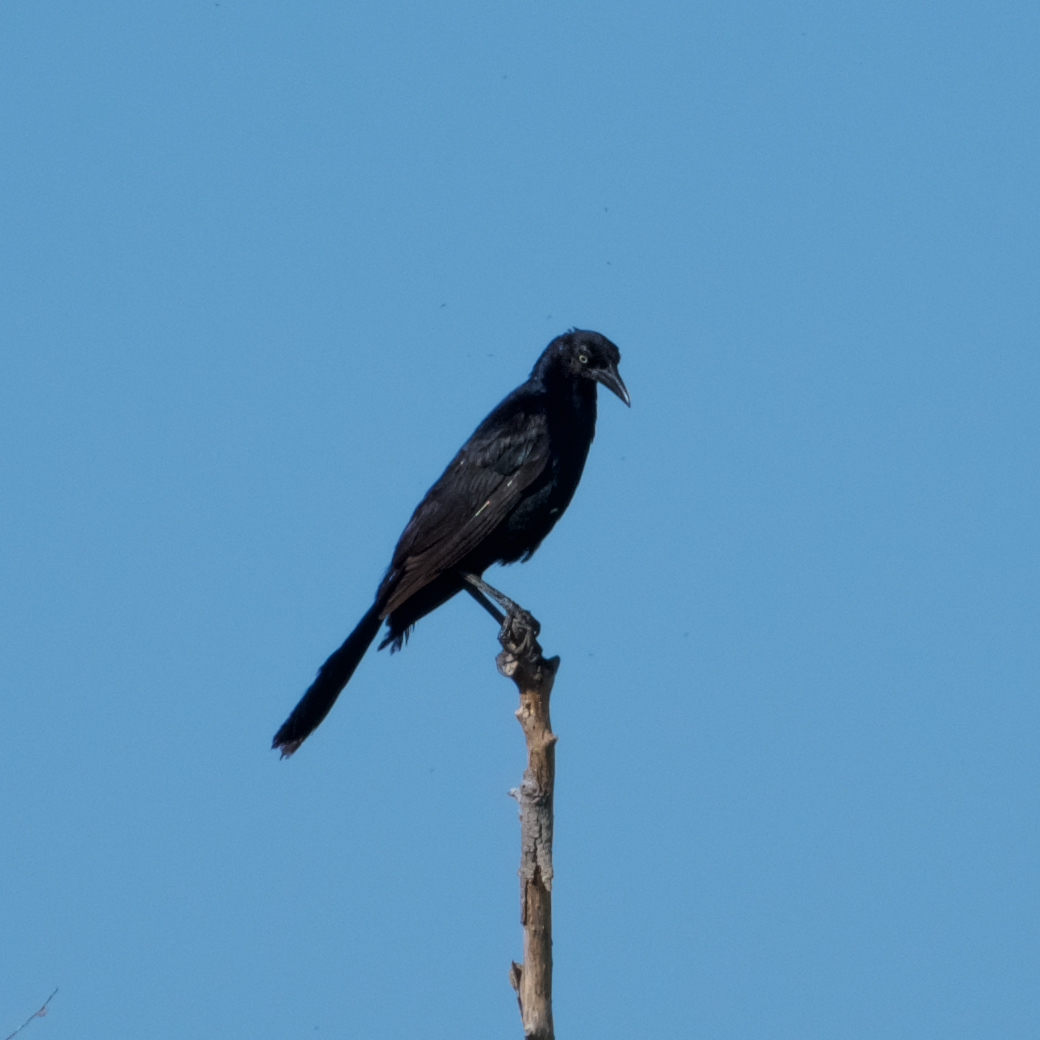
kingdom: Animalia
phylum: Chordata
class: Aves
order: Passeriformes
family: Icteridae
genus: Quiscalus
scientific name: Quiscalus mexicanus
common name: Great-tailed grackle
